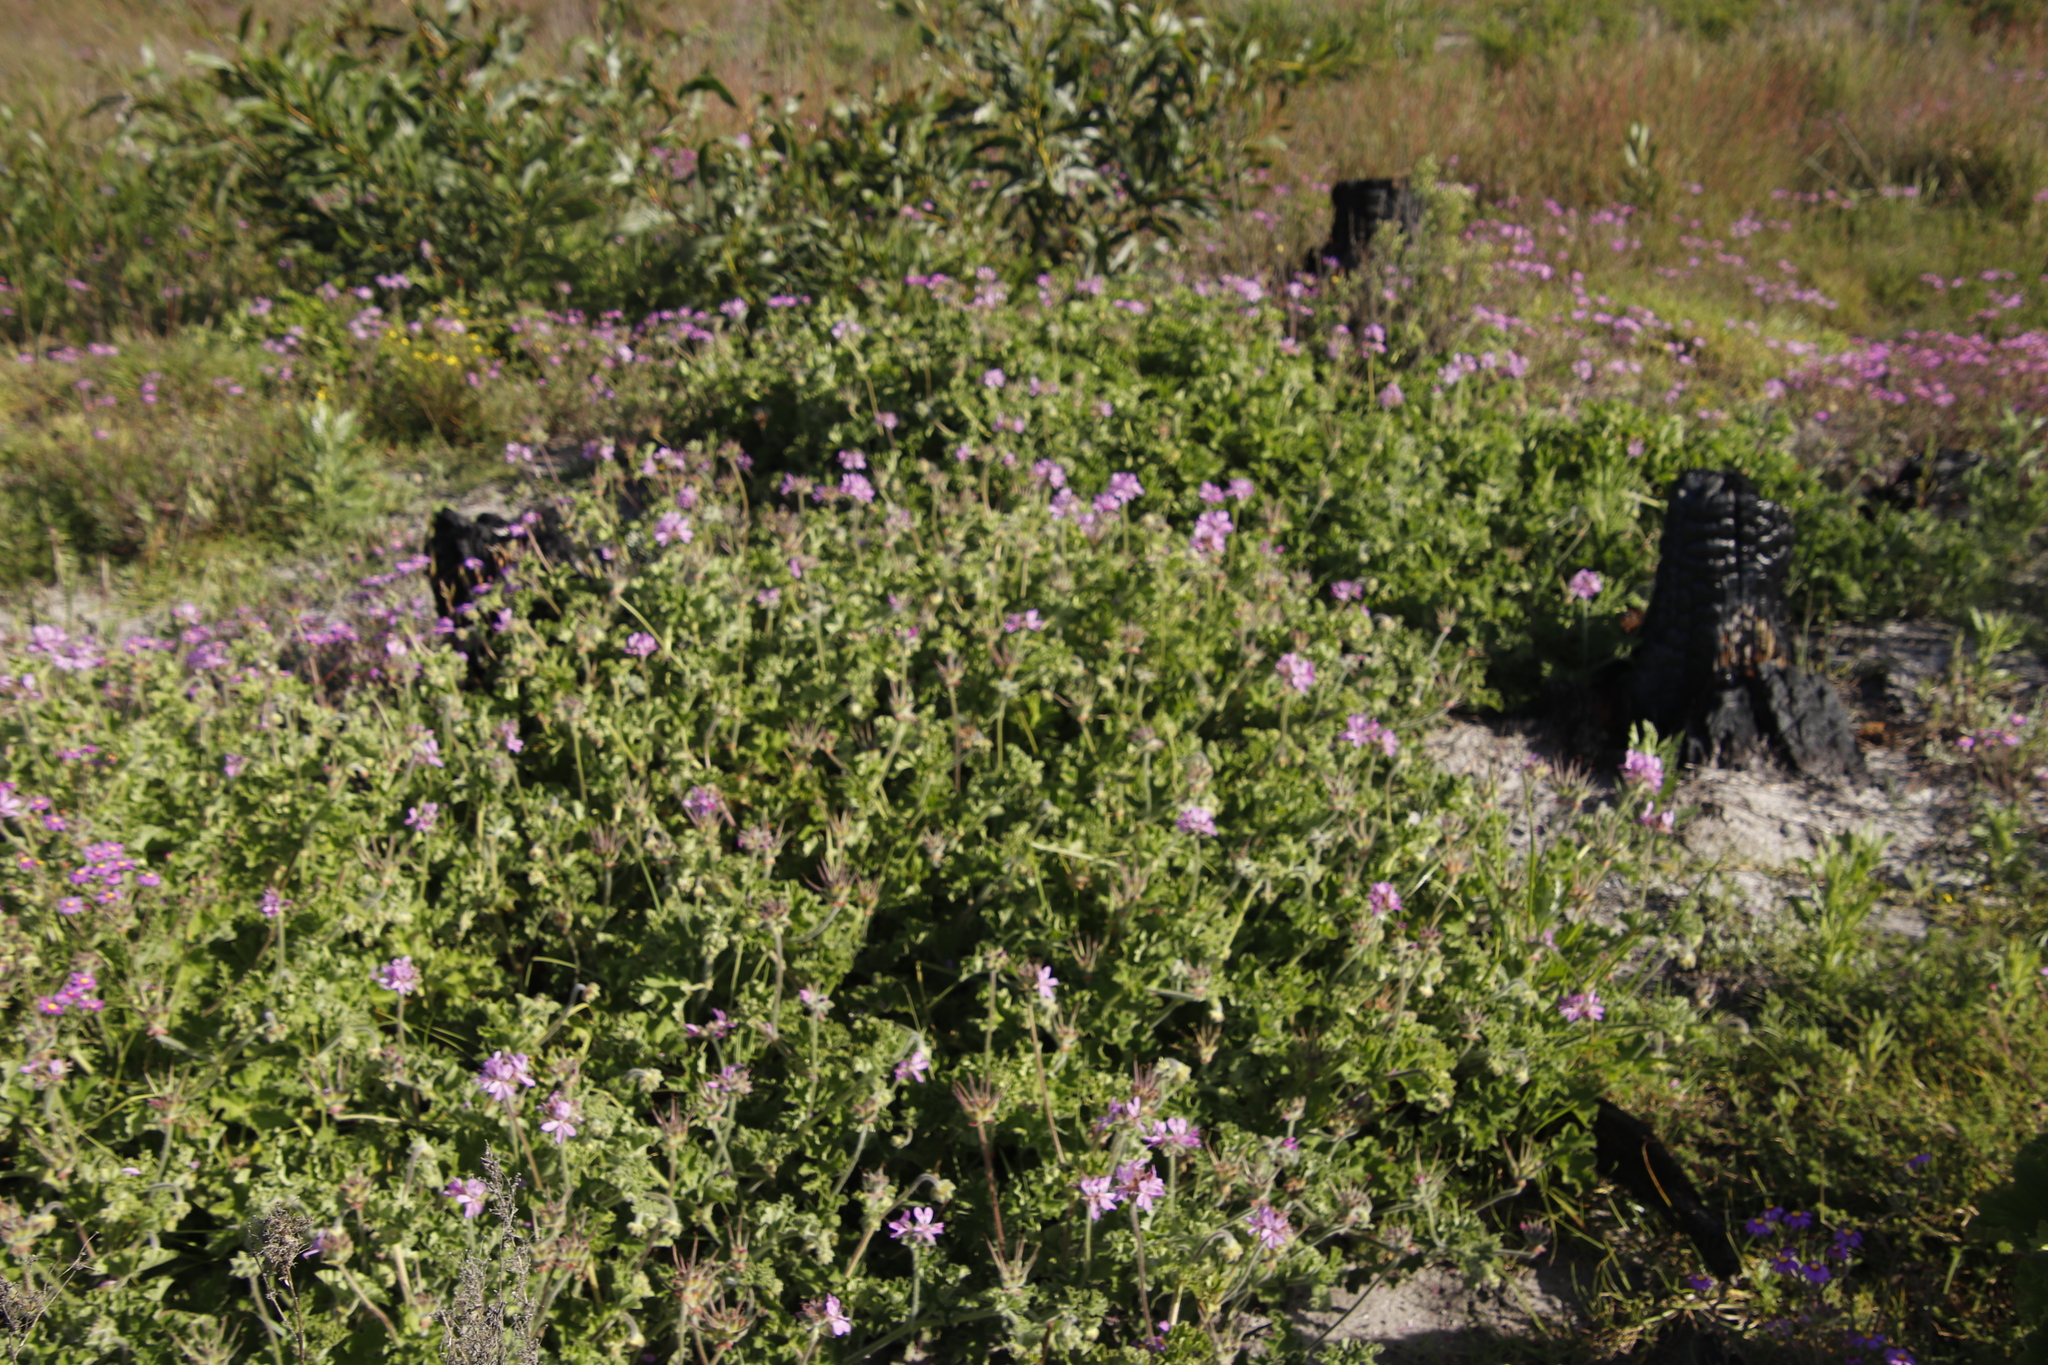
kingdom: Plantae
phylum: Tracheophyta
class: Magnoliopsida
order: Geraniales
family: Geraniaceae
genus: Pelargonium
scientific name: Pelargonium capitatum
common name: Rose scented geranium
